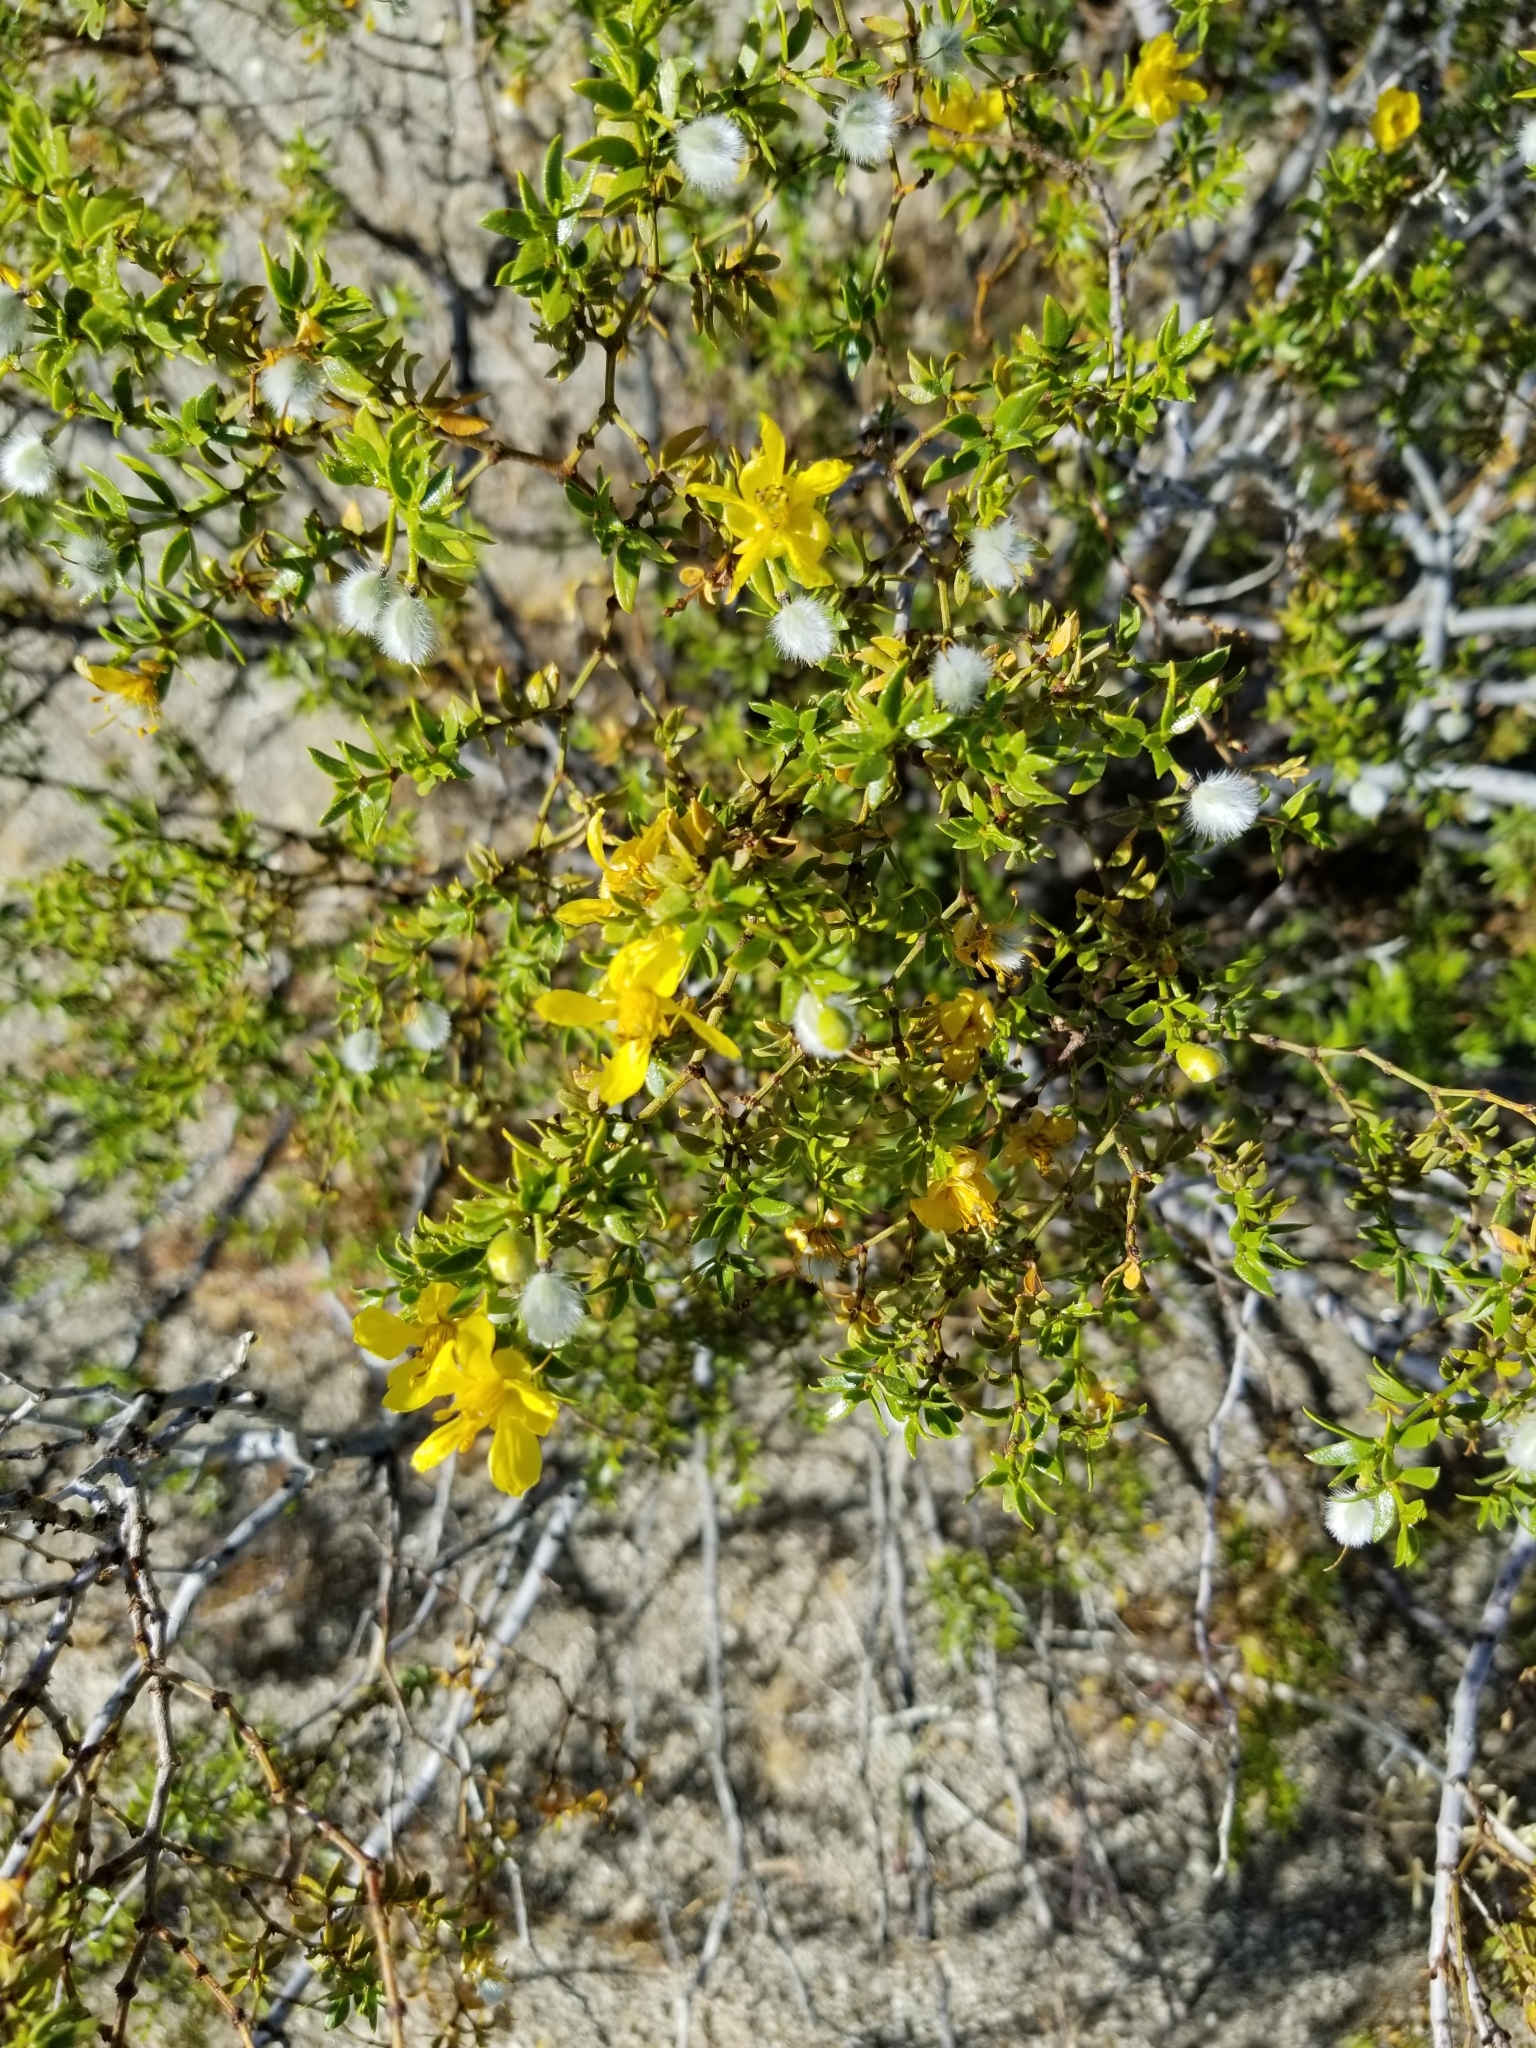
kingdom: Plantae
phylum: Tracheophyta
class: Magnoliopsida
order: Zygophyllales
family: Zygophyllaceae
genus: Larrea
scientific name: Larrea tridentata
